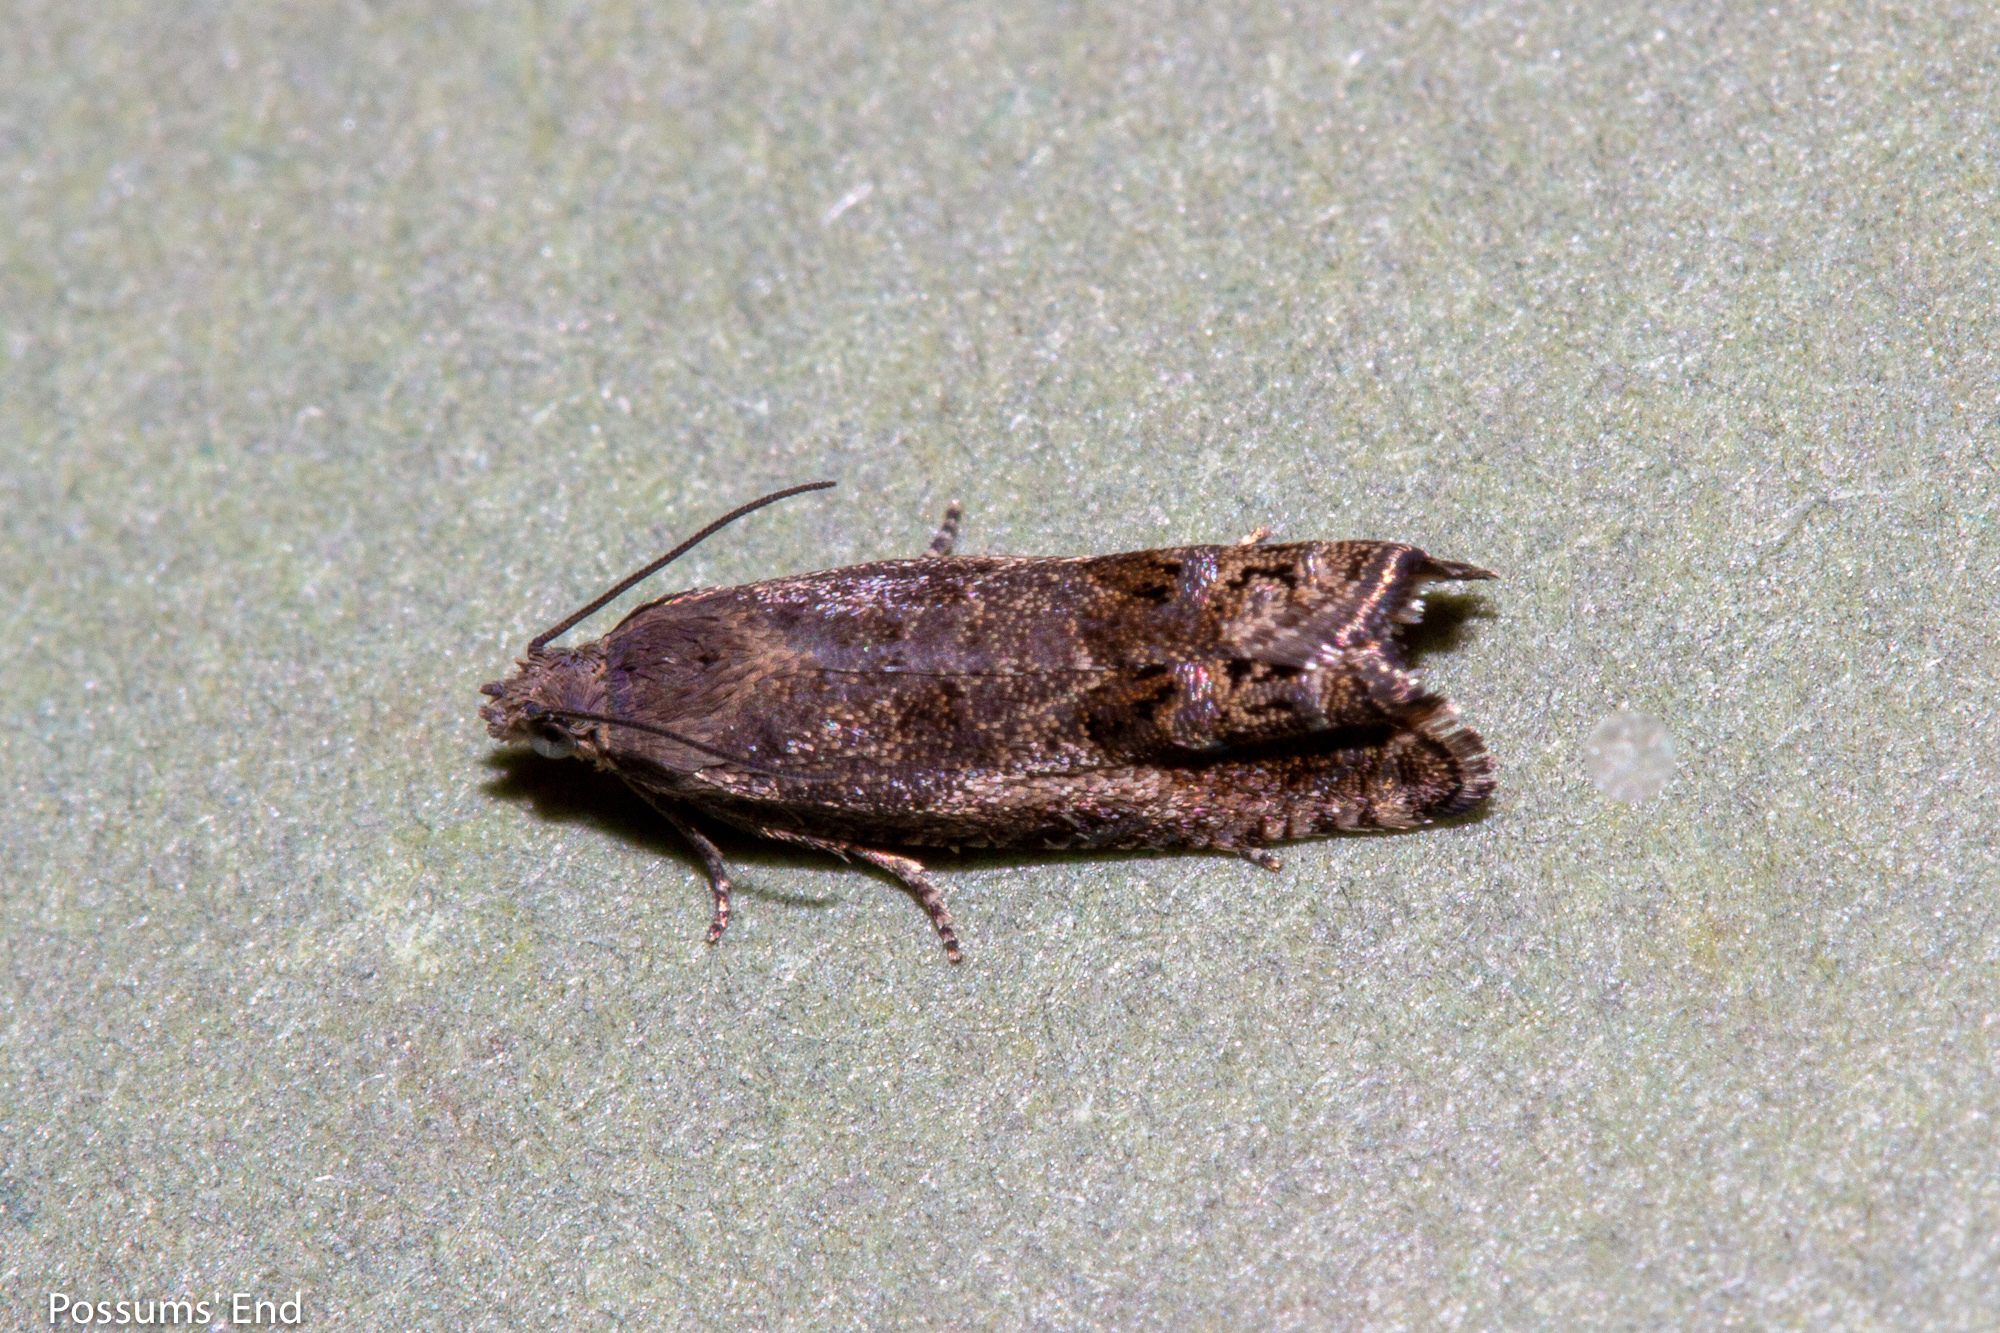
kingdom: Animalia
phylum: Arthropoda
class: Insecta
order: Lepidoptera
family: Tortricidae
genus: Cydia
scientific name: Cydia succedana
